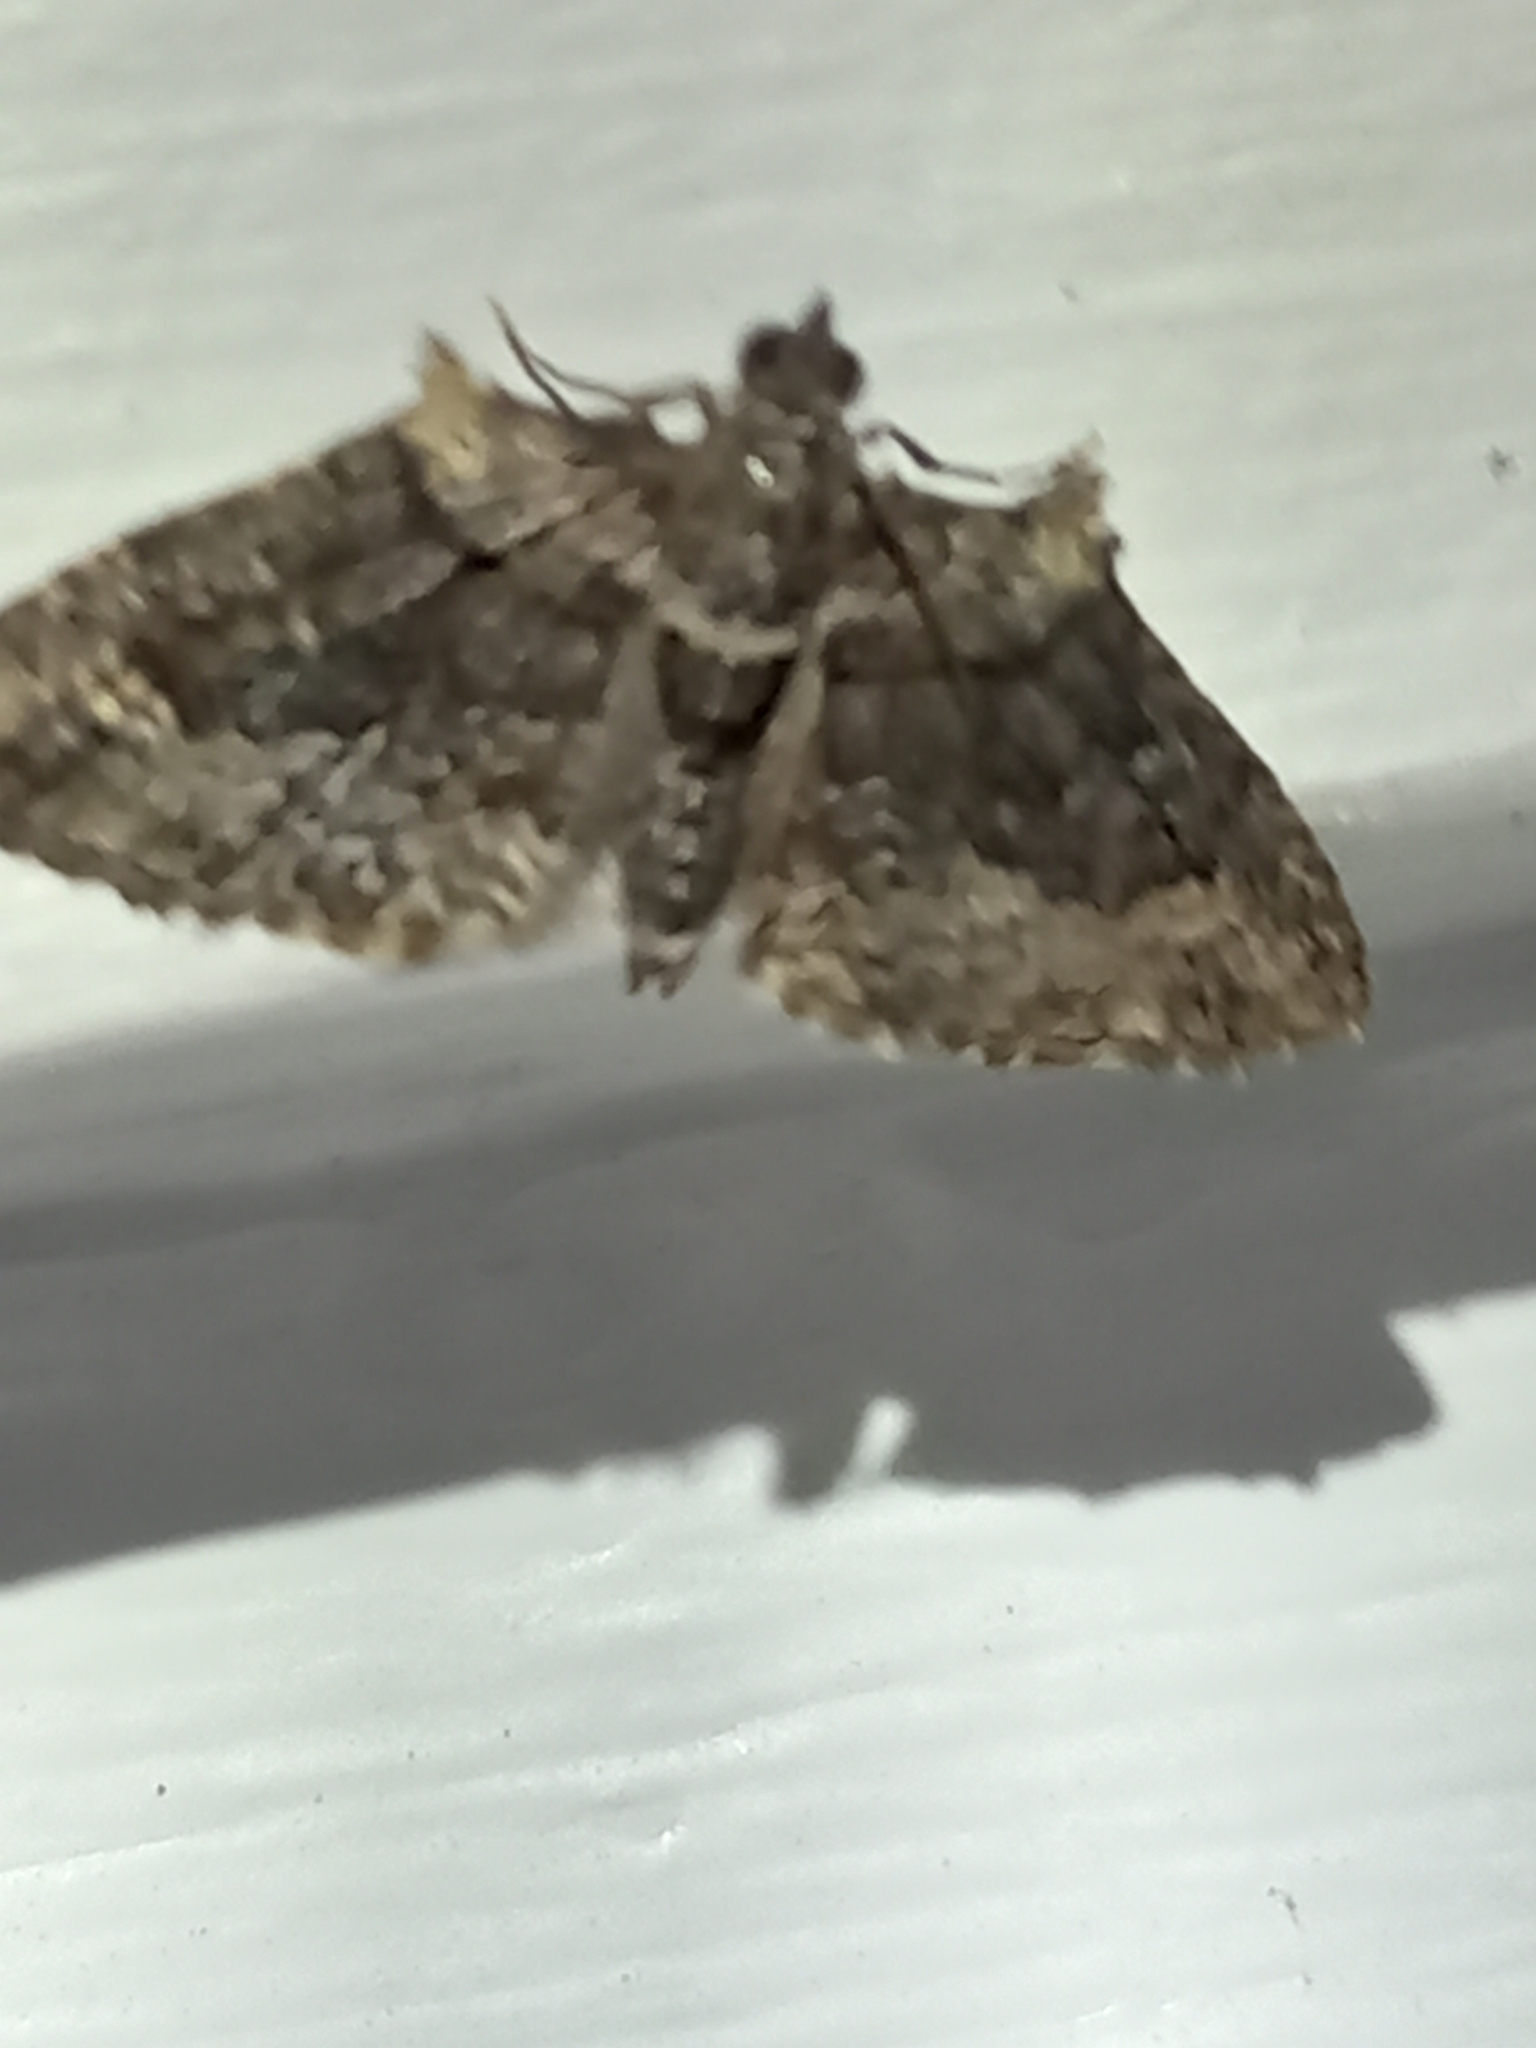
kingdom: Animalia
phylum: Arthropoda
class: Insecta
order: Lepidoptera
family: Geometridae
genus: Phrissogonus
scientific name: Phrissogonus laticostata
